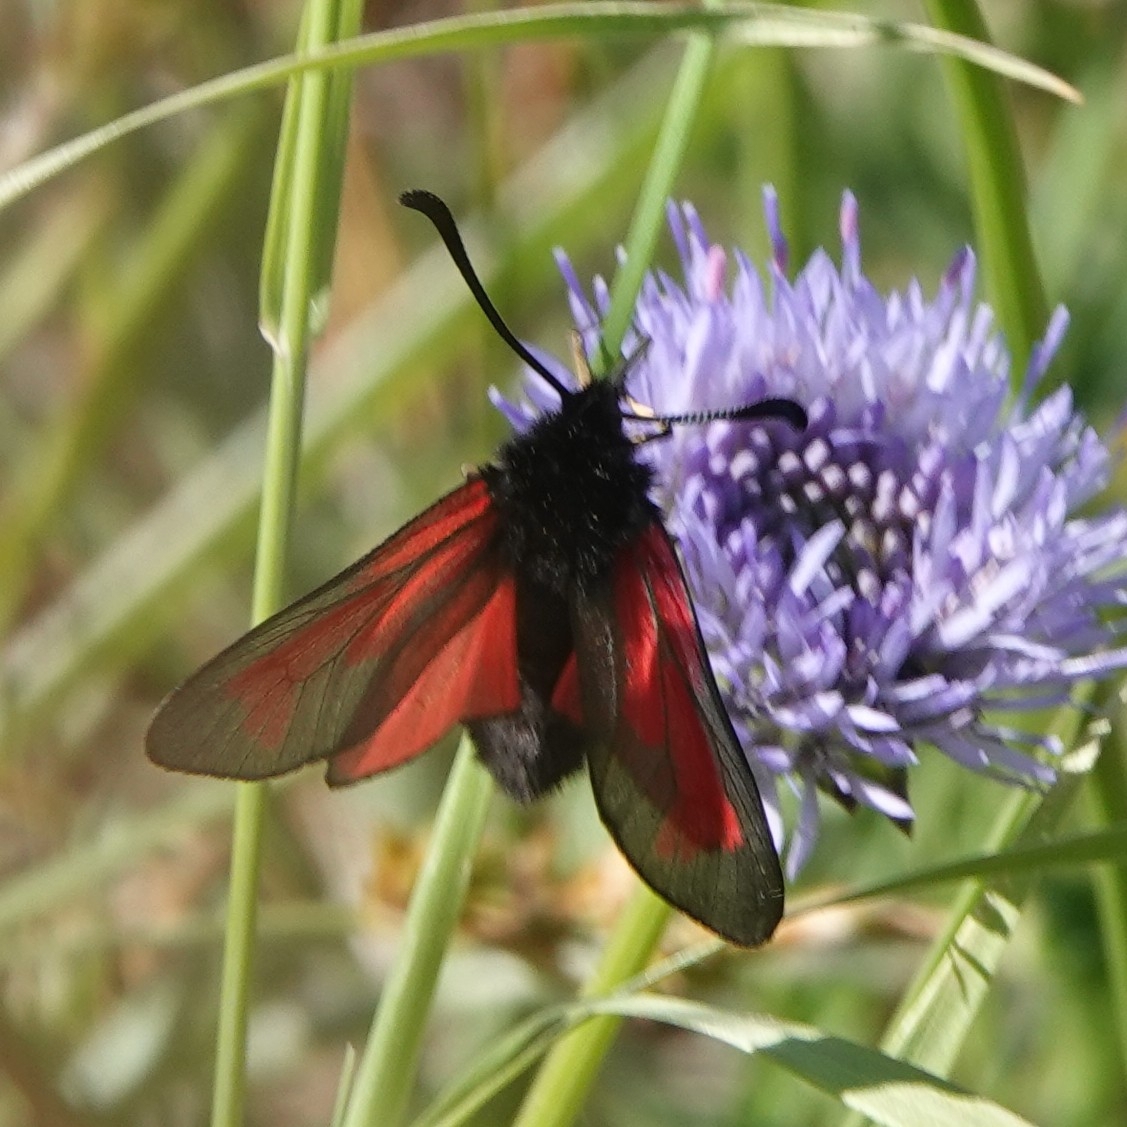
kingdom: Animalia
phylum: Arthropoda
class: Insecta
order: Lepidoptera
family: Zygaenidae
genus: Zygaena
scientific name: Zygaena minos
